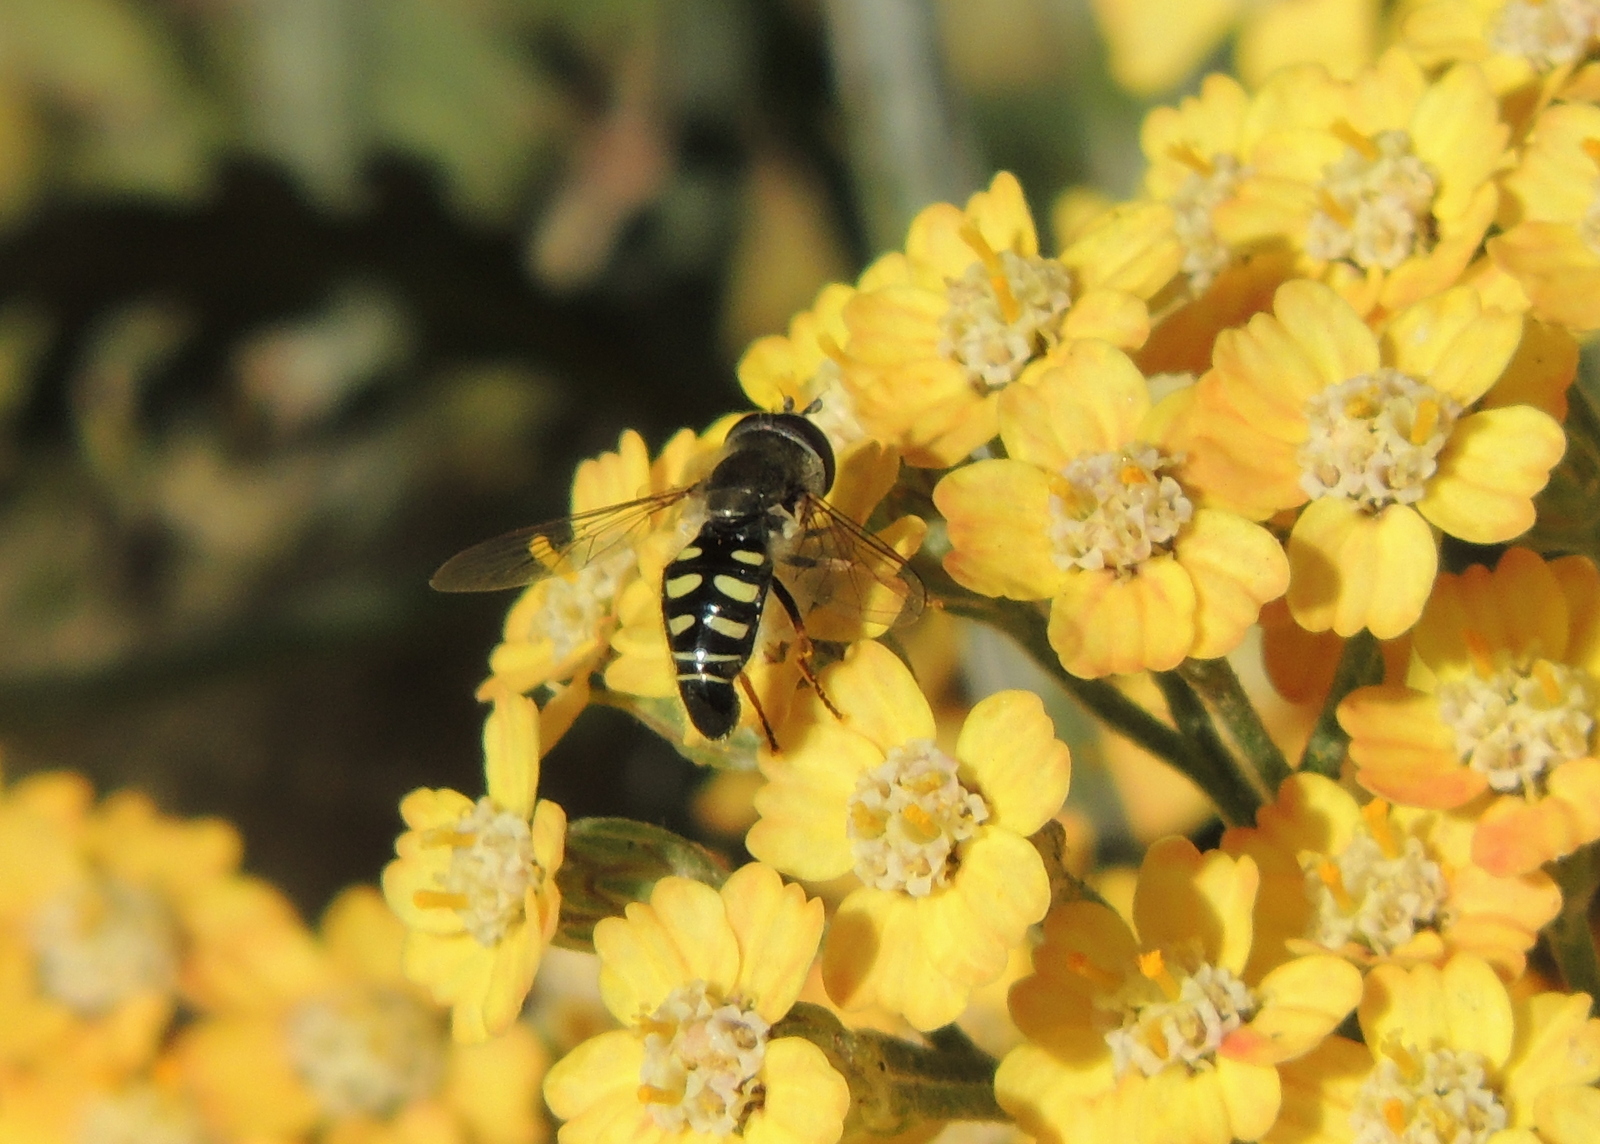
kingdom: Animalia
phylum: Arthropoda
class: Insecta
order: Diptera
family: Syrphidae
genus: Eupeodes
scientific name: Eupeodes volucris
